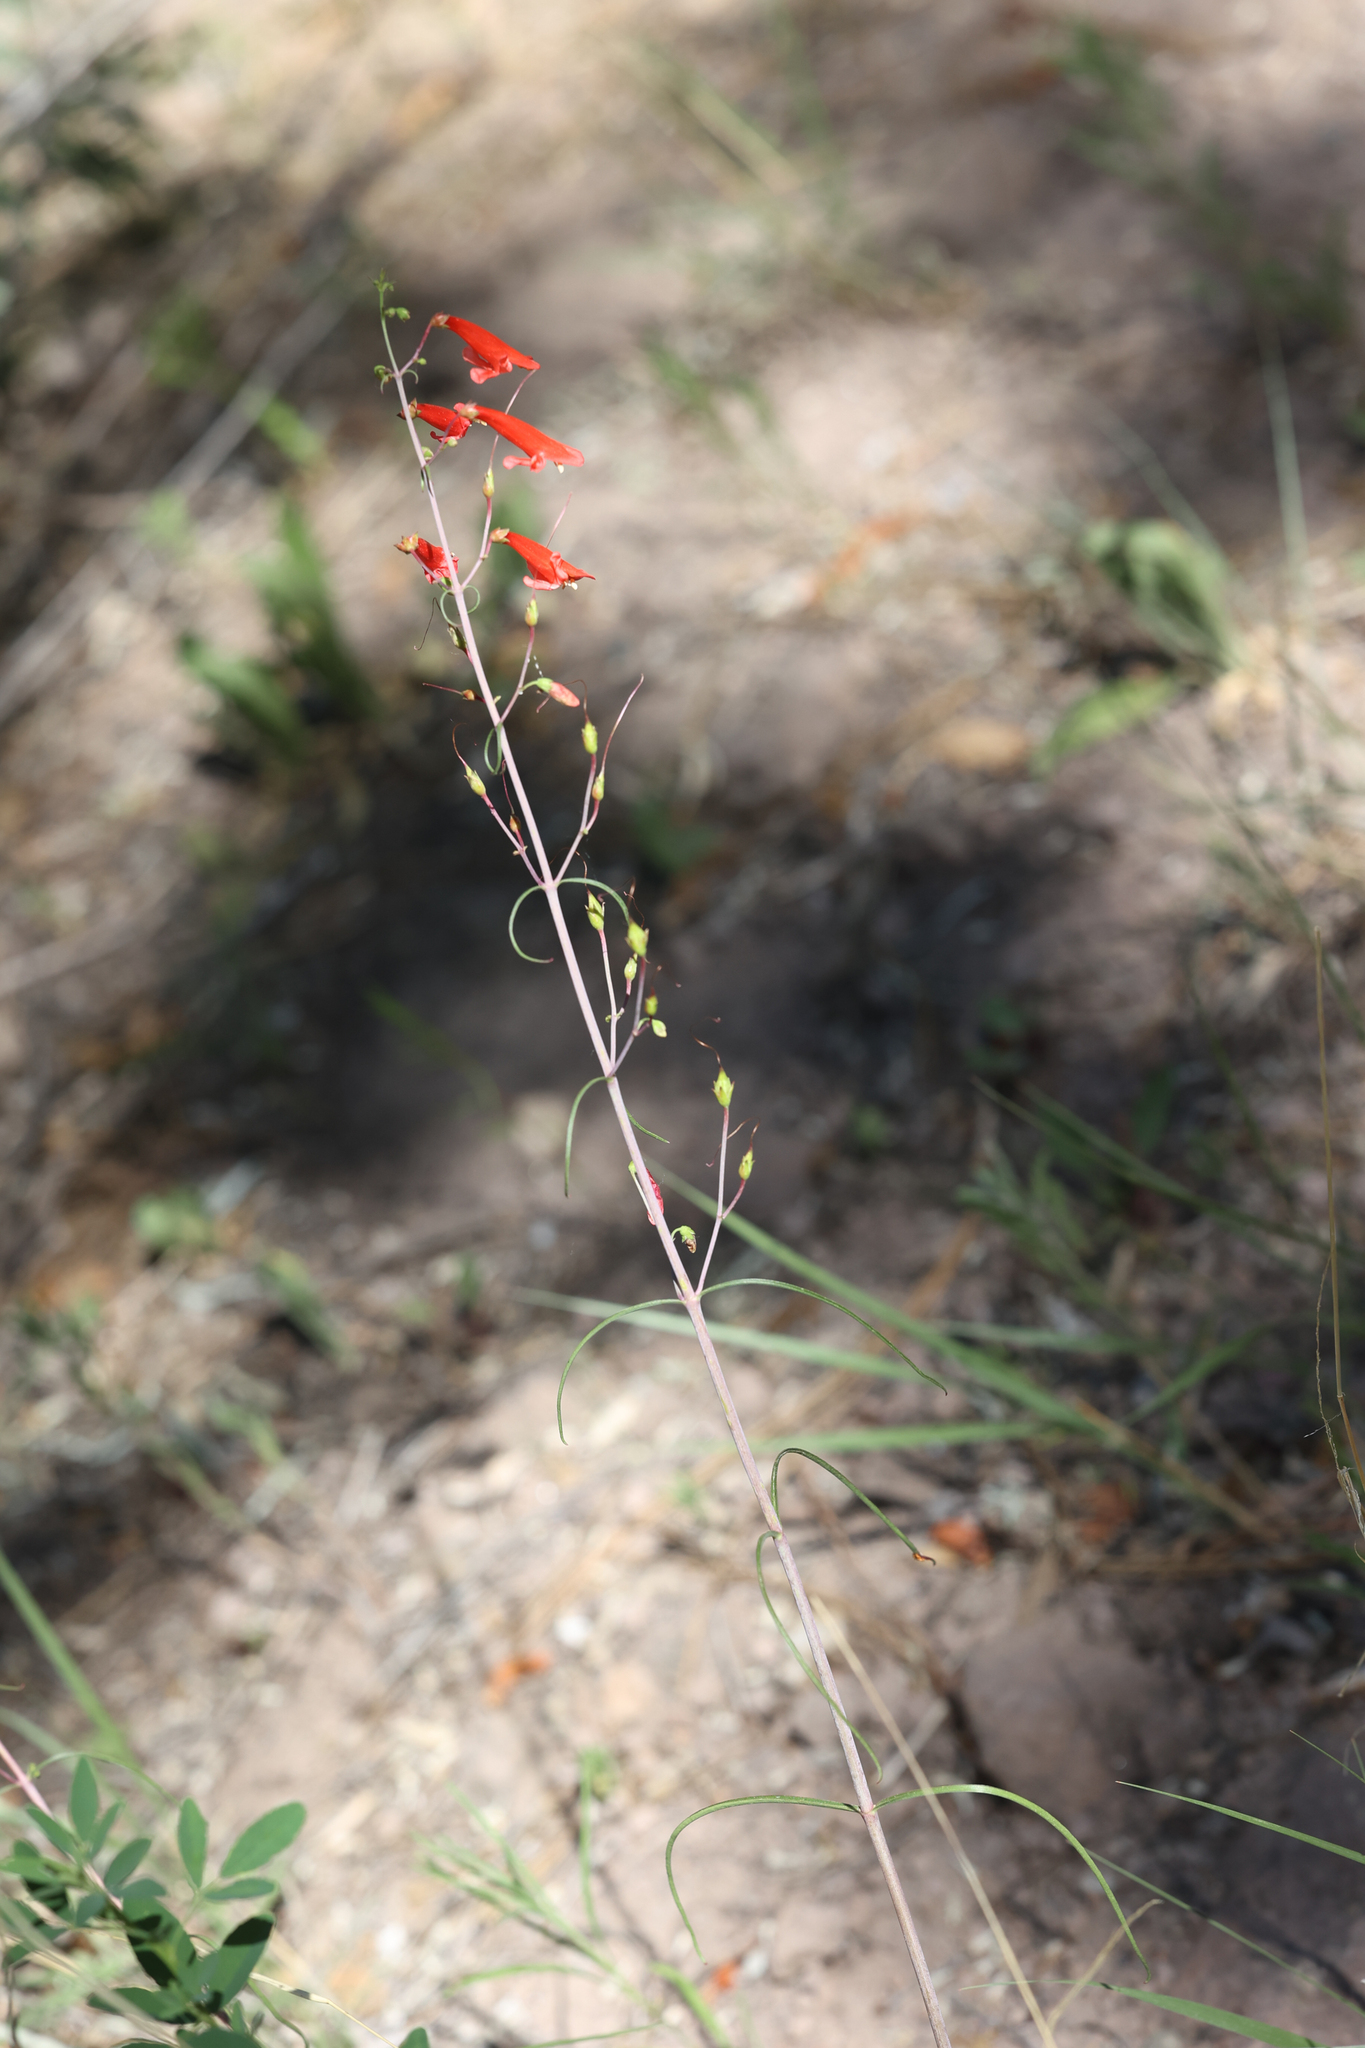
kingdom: Plantae
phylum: Tracheophyta
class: Magnoliopsida
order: Lamiales
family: Plantaginaceae
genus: Penstemon
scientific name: Penstemon barbatus
